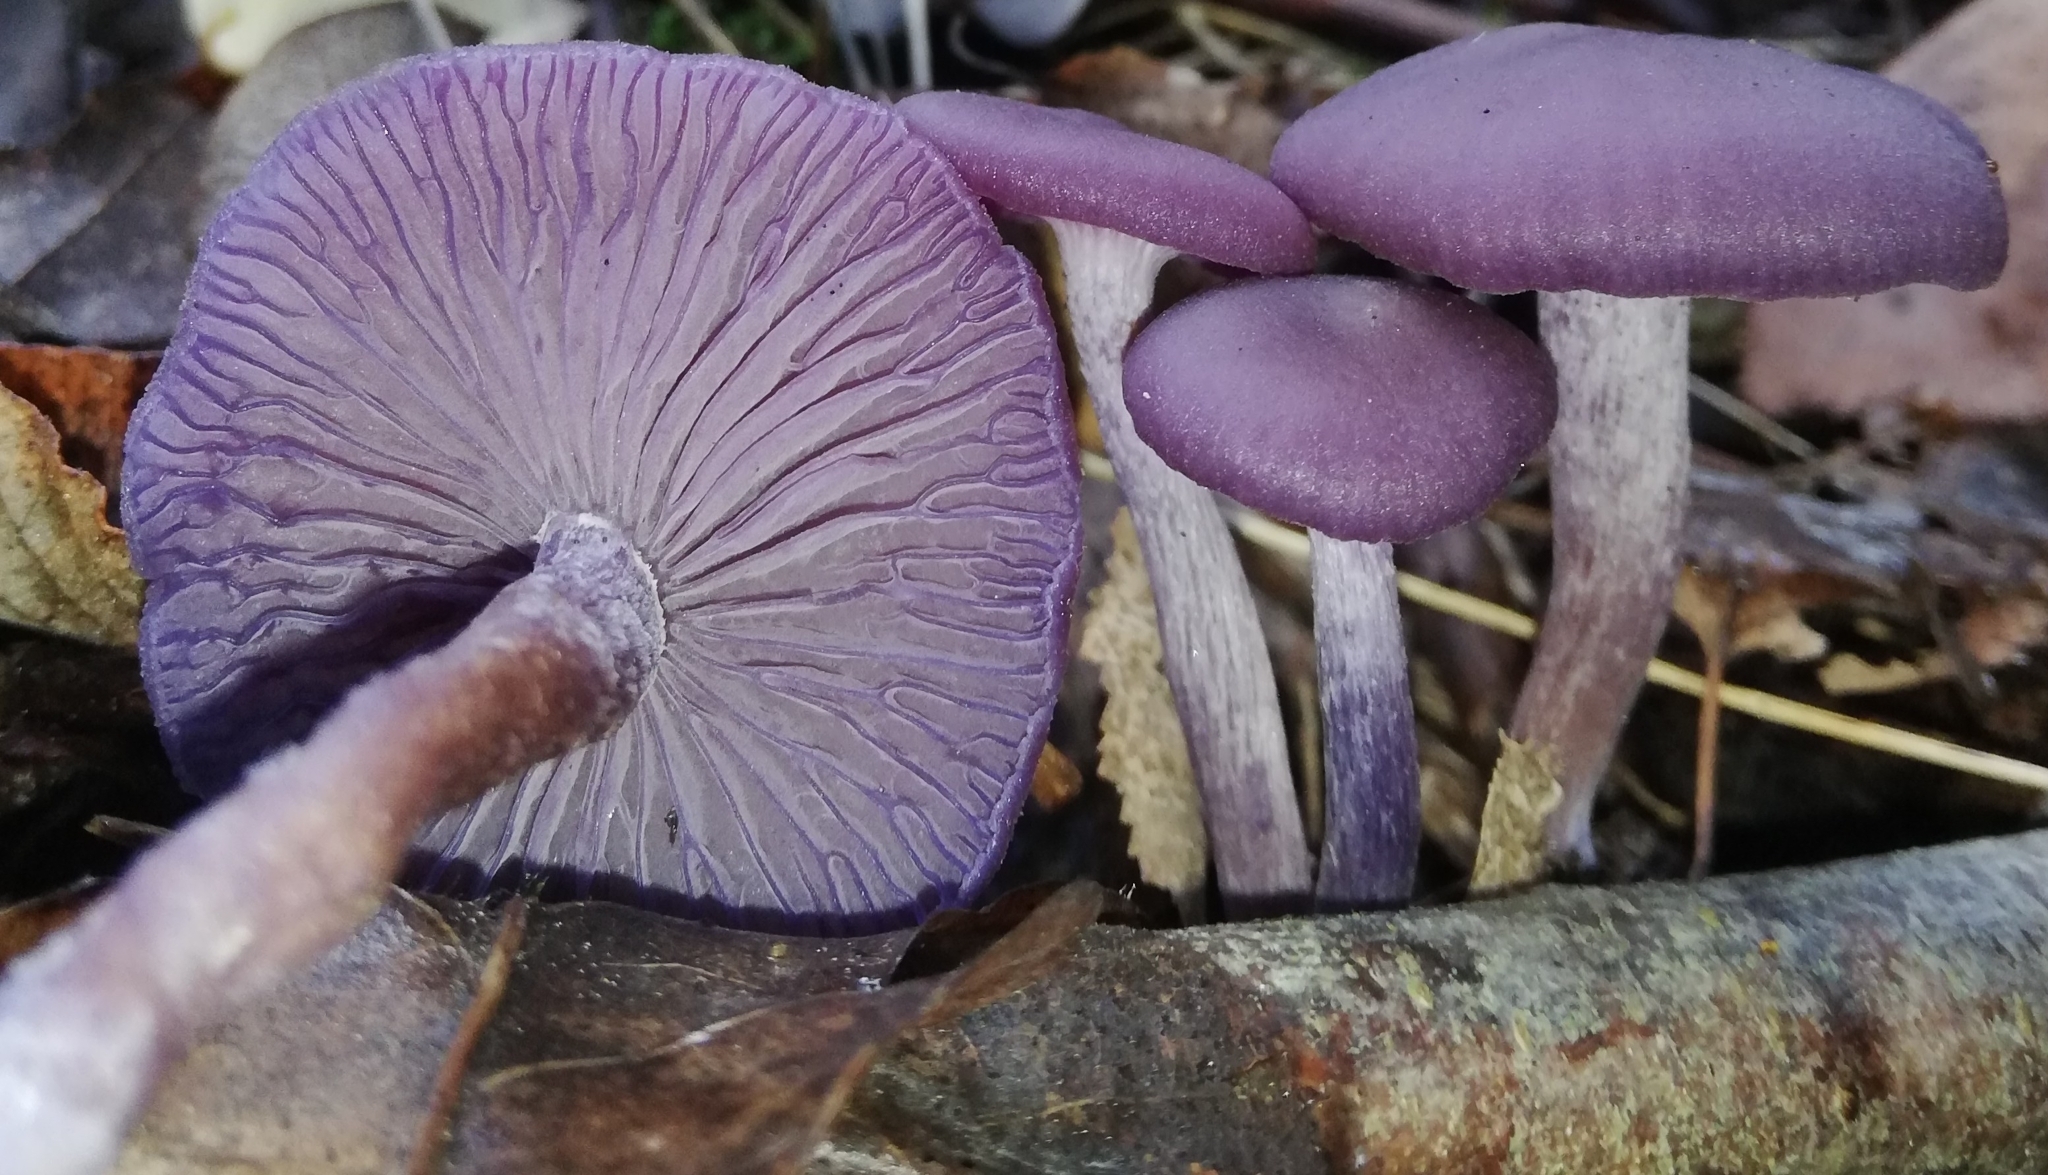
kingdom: Fungi
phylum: Basidiomycota
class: Agaricomycetes
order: Agaricales
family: Hydnangiaceae
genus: Laccaria
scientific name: Laccaria amethystina
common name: Amethyst deceiver
